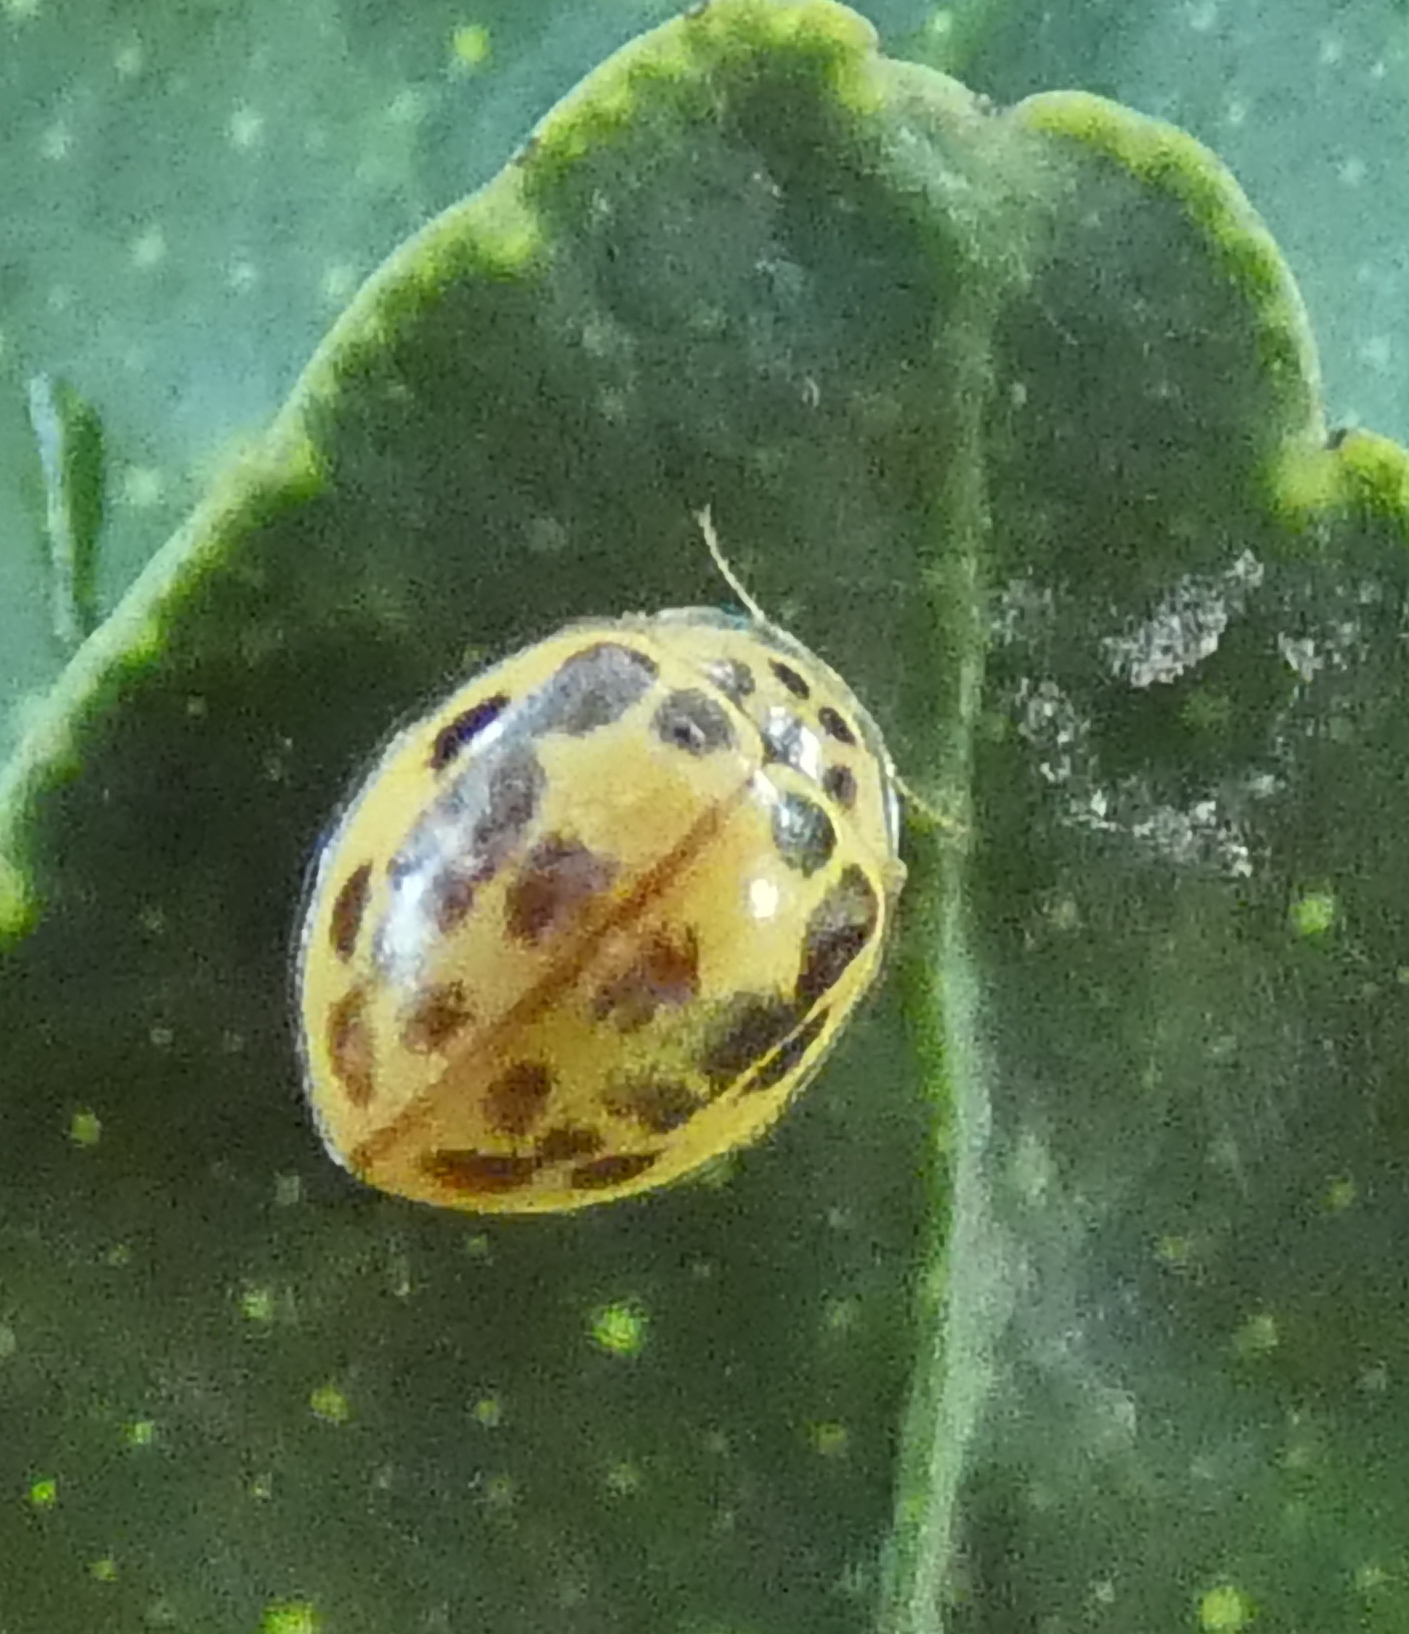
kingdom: Animalia
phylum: Arthropoda
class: Insecta
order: Coleoptera
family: Coccinellidae
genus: Psyllobora
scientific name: Psyllobora confluens
